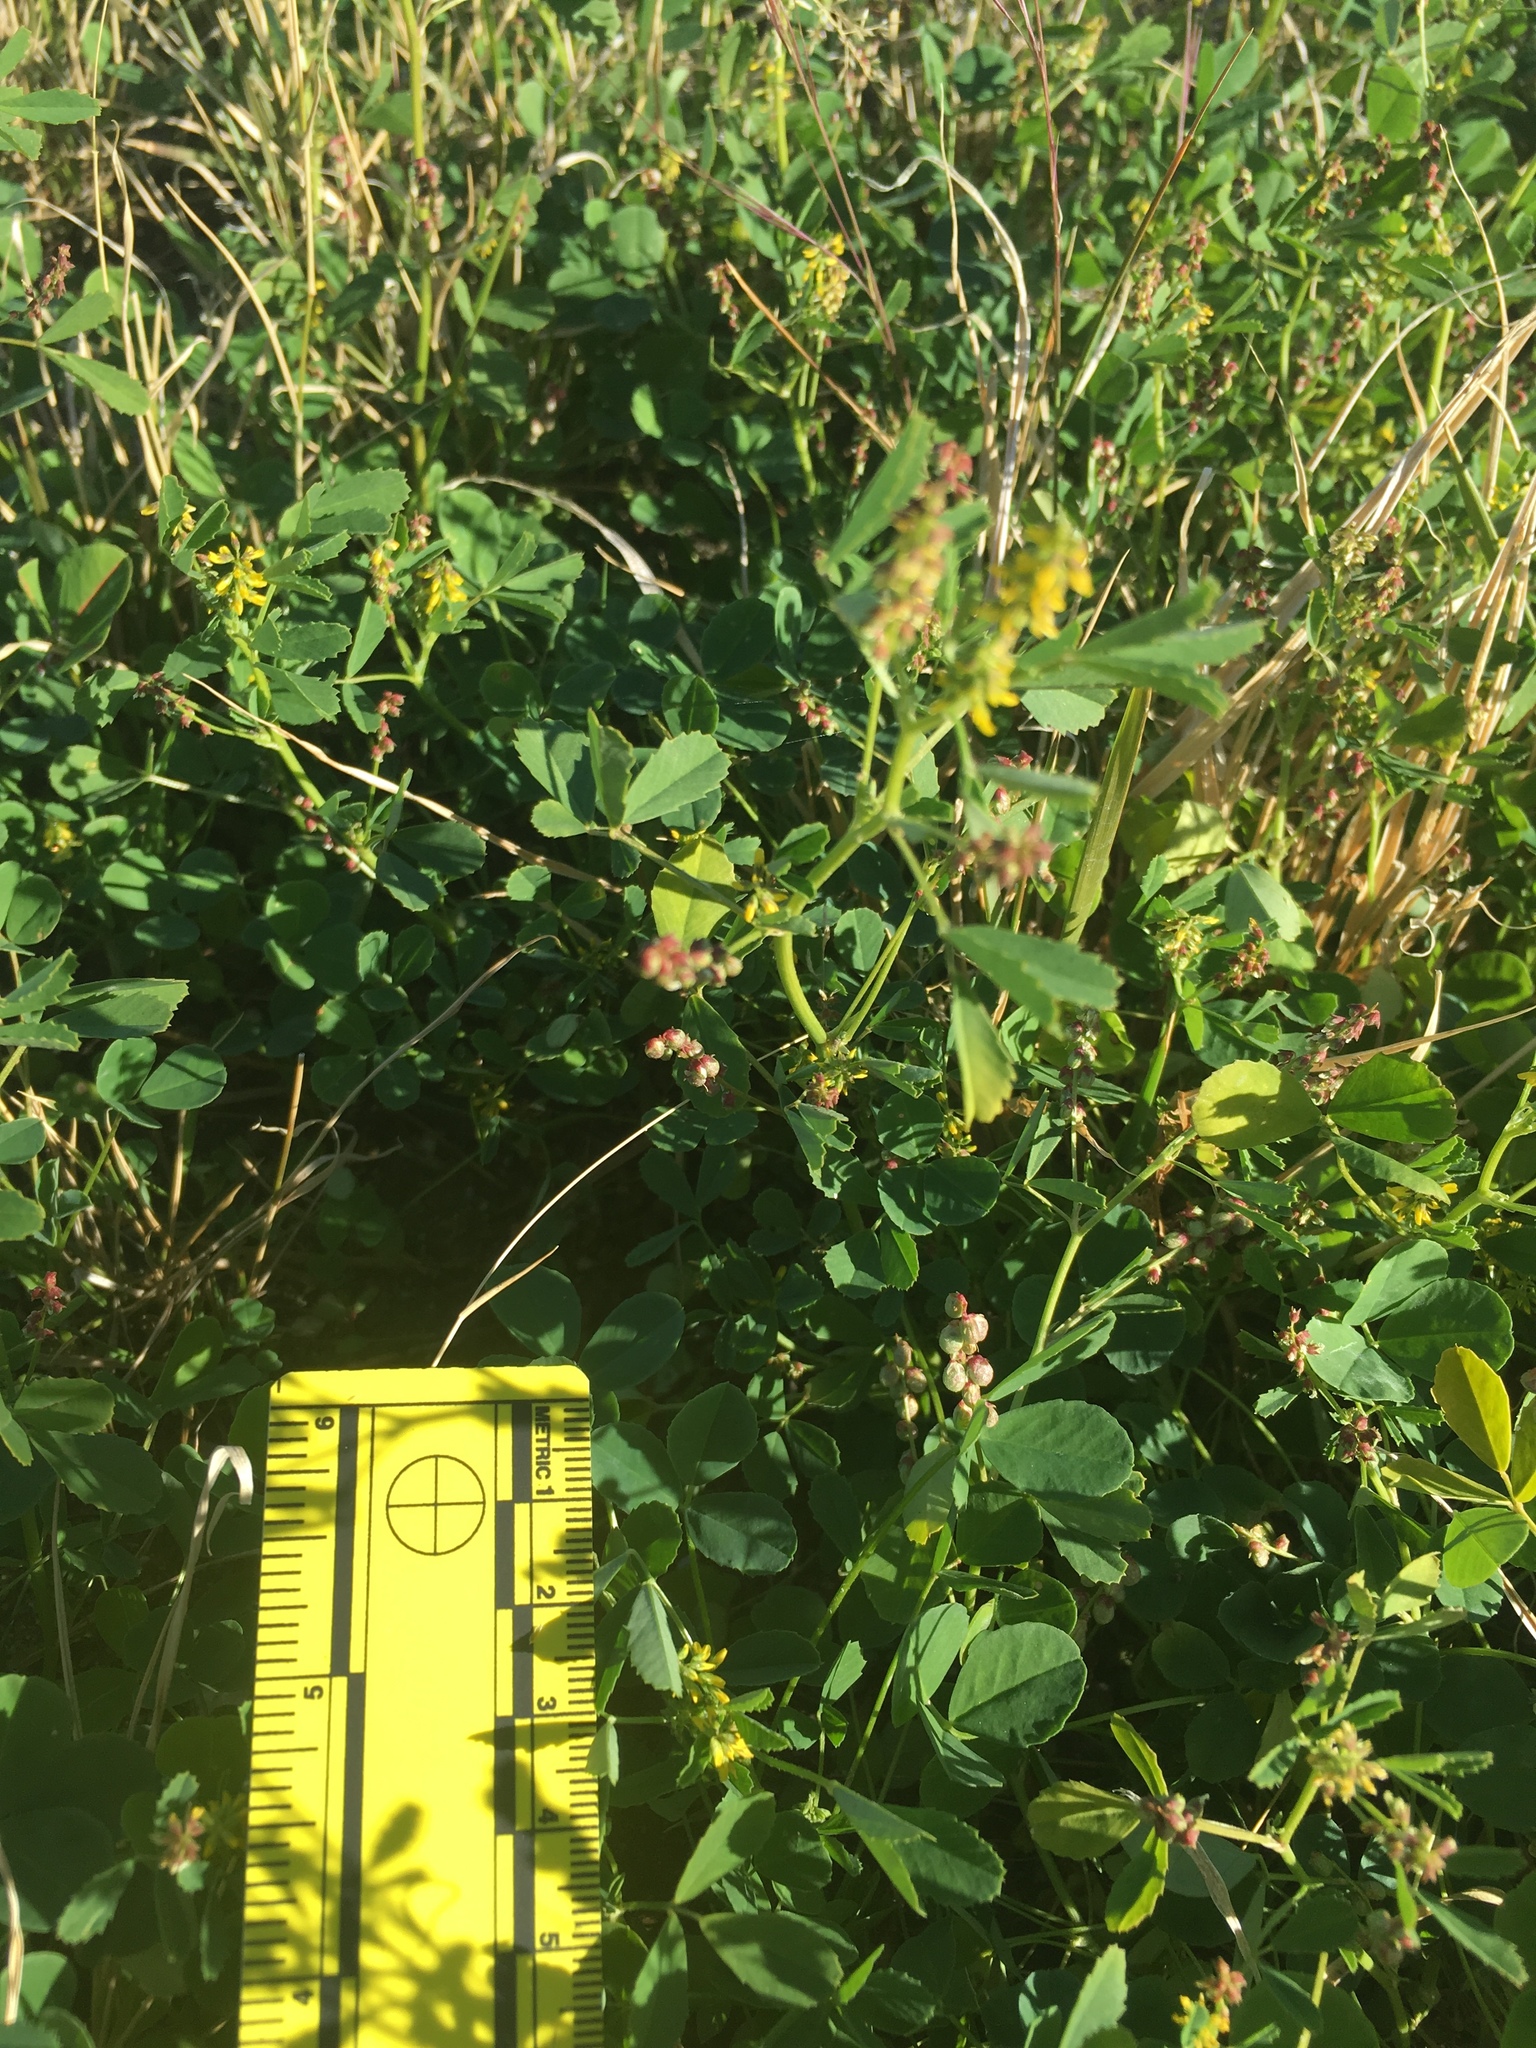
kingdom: Plantae
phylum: Tracheophyta
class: Magnoliopsida
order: Fabales
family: Fabaceae
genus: Melilotus
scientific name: Melilotus indicus
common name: Small melilot
